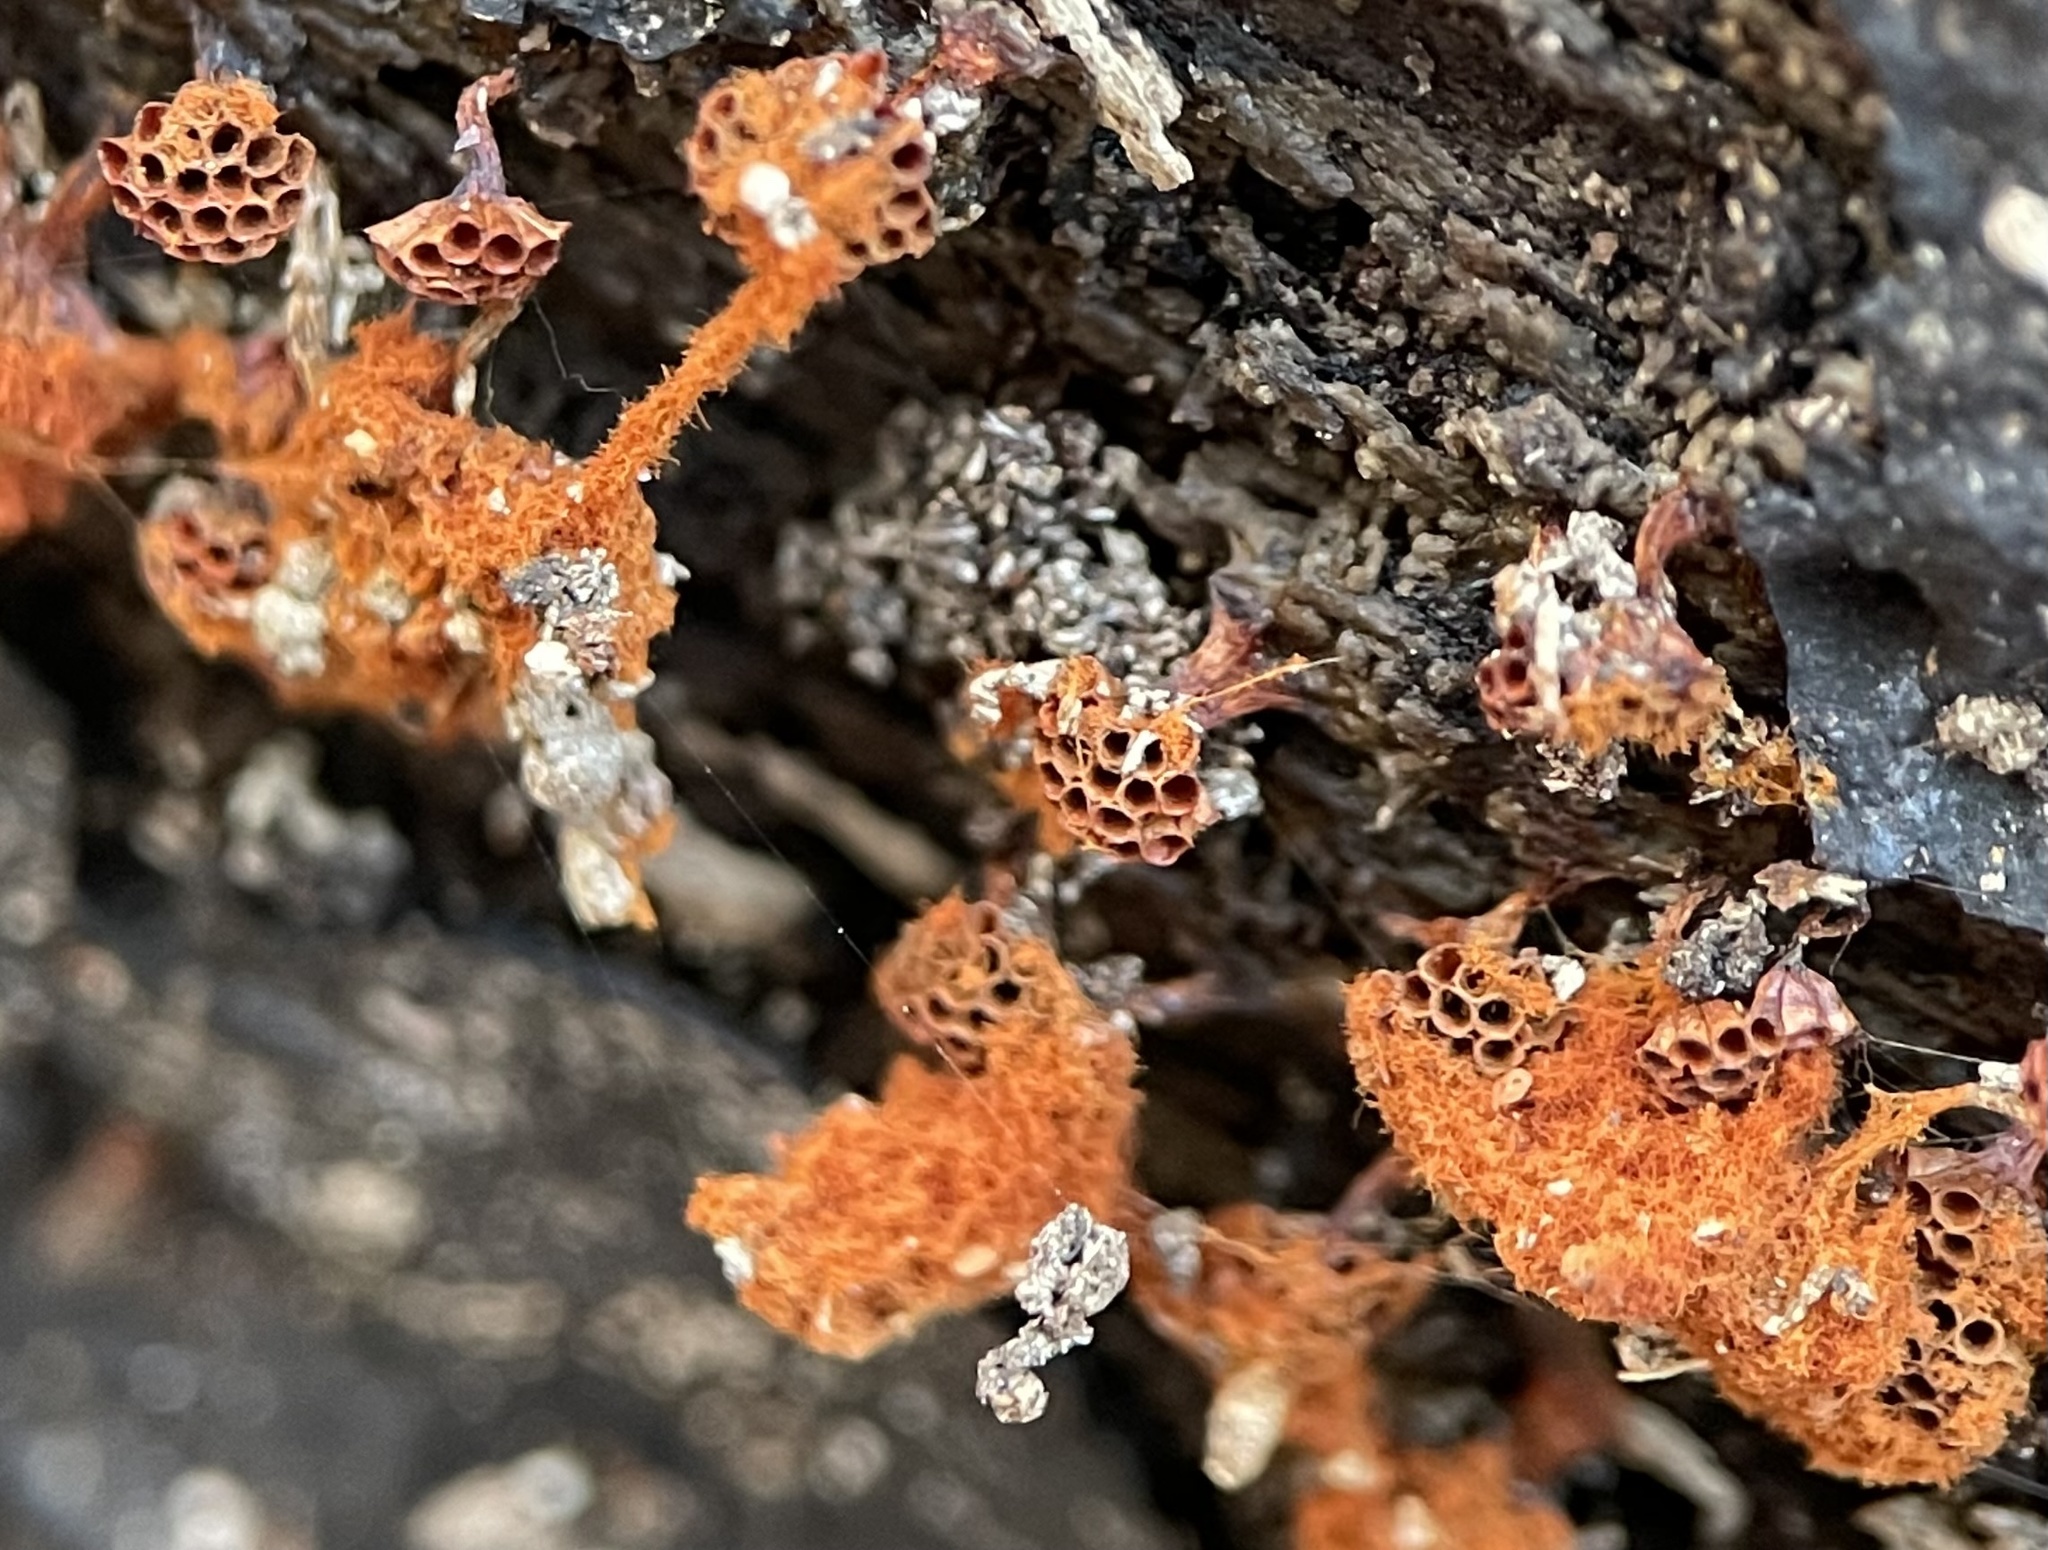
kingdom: Protozoa
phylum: Mycetozoa
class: Myxomycetes
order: Trichiales
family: Trichiaceae
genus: Metatrichia
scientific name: Metatrichia vesparia
